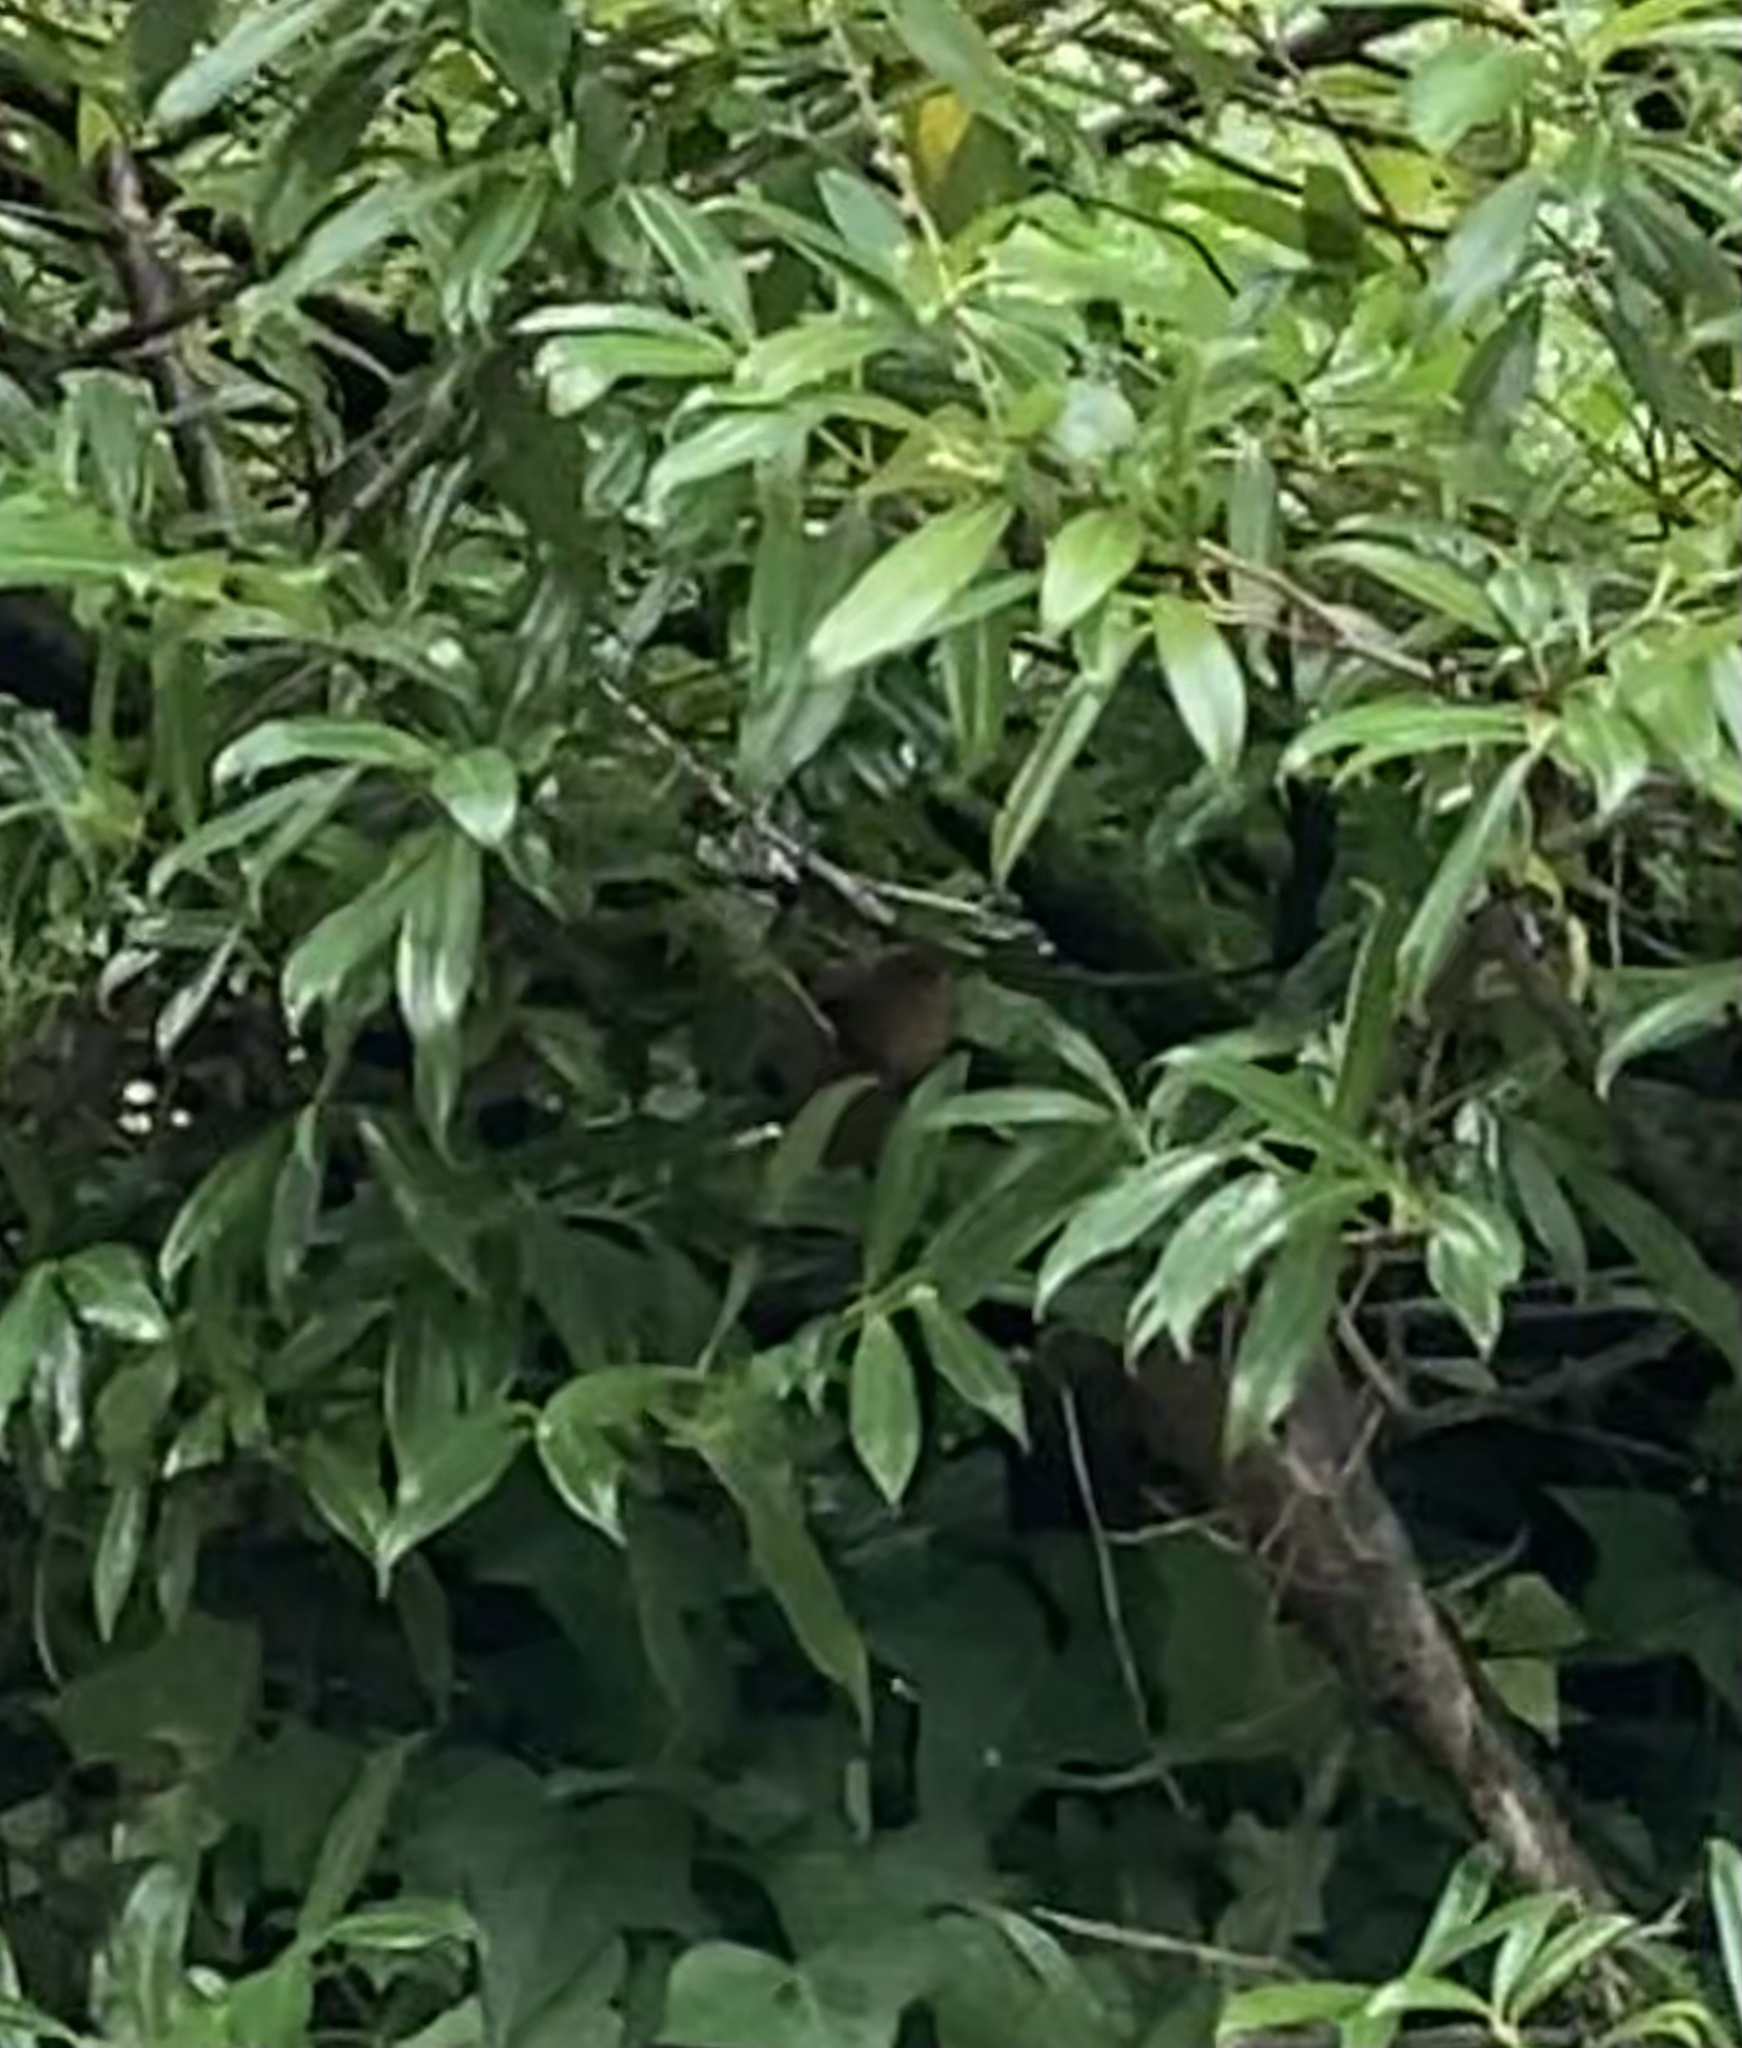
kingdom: Animalia
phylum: Chordata
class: Aves
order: Passeriformes
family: Troglodytidae
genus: Troglodytes
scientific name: Troglodytes pacificus
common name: Pacific wren
